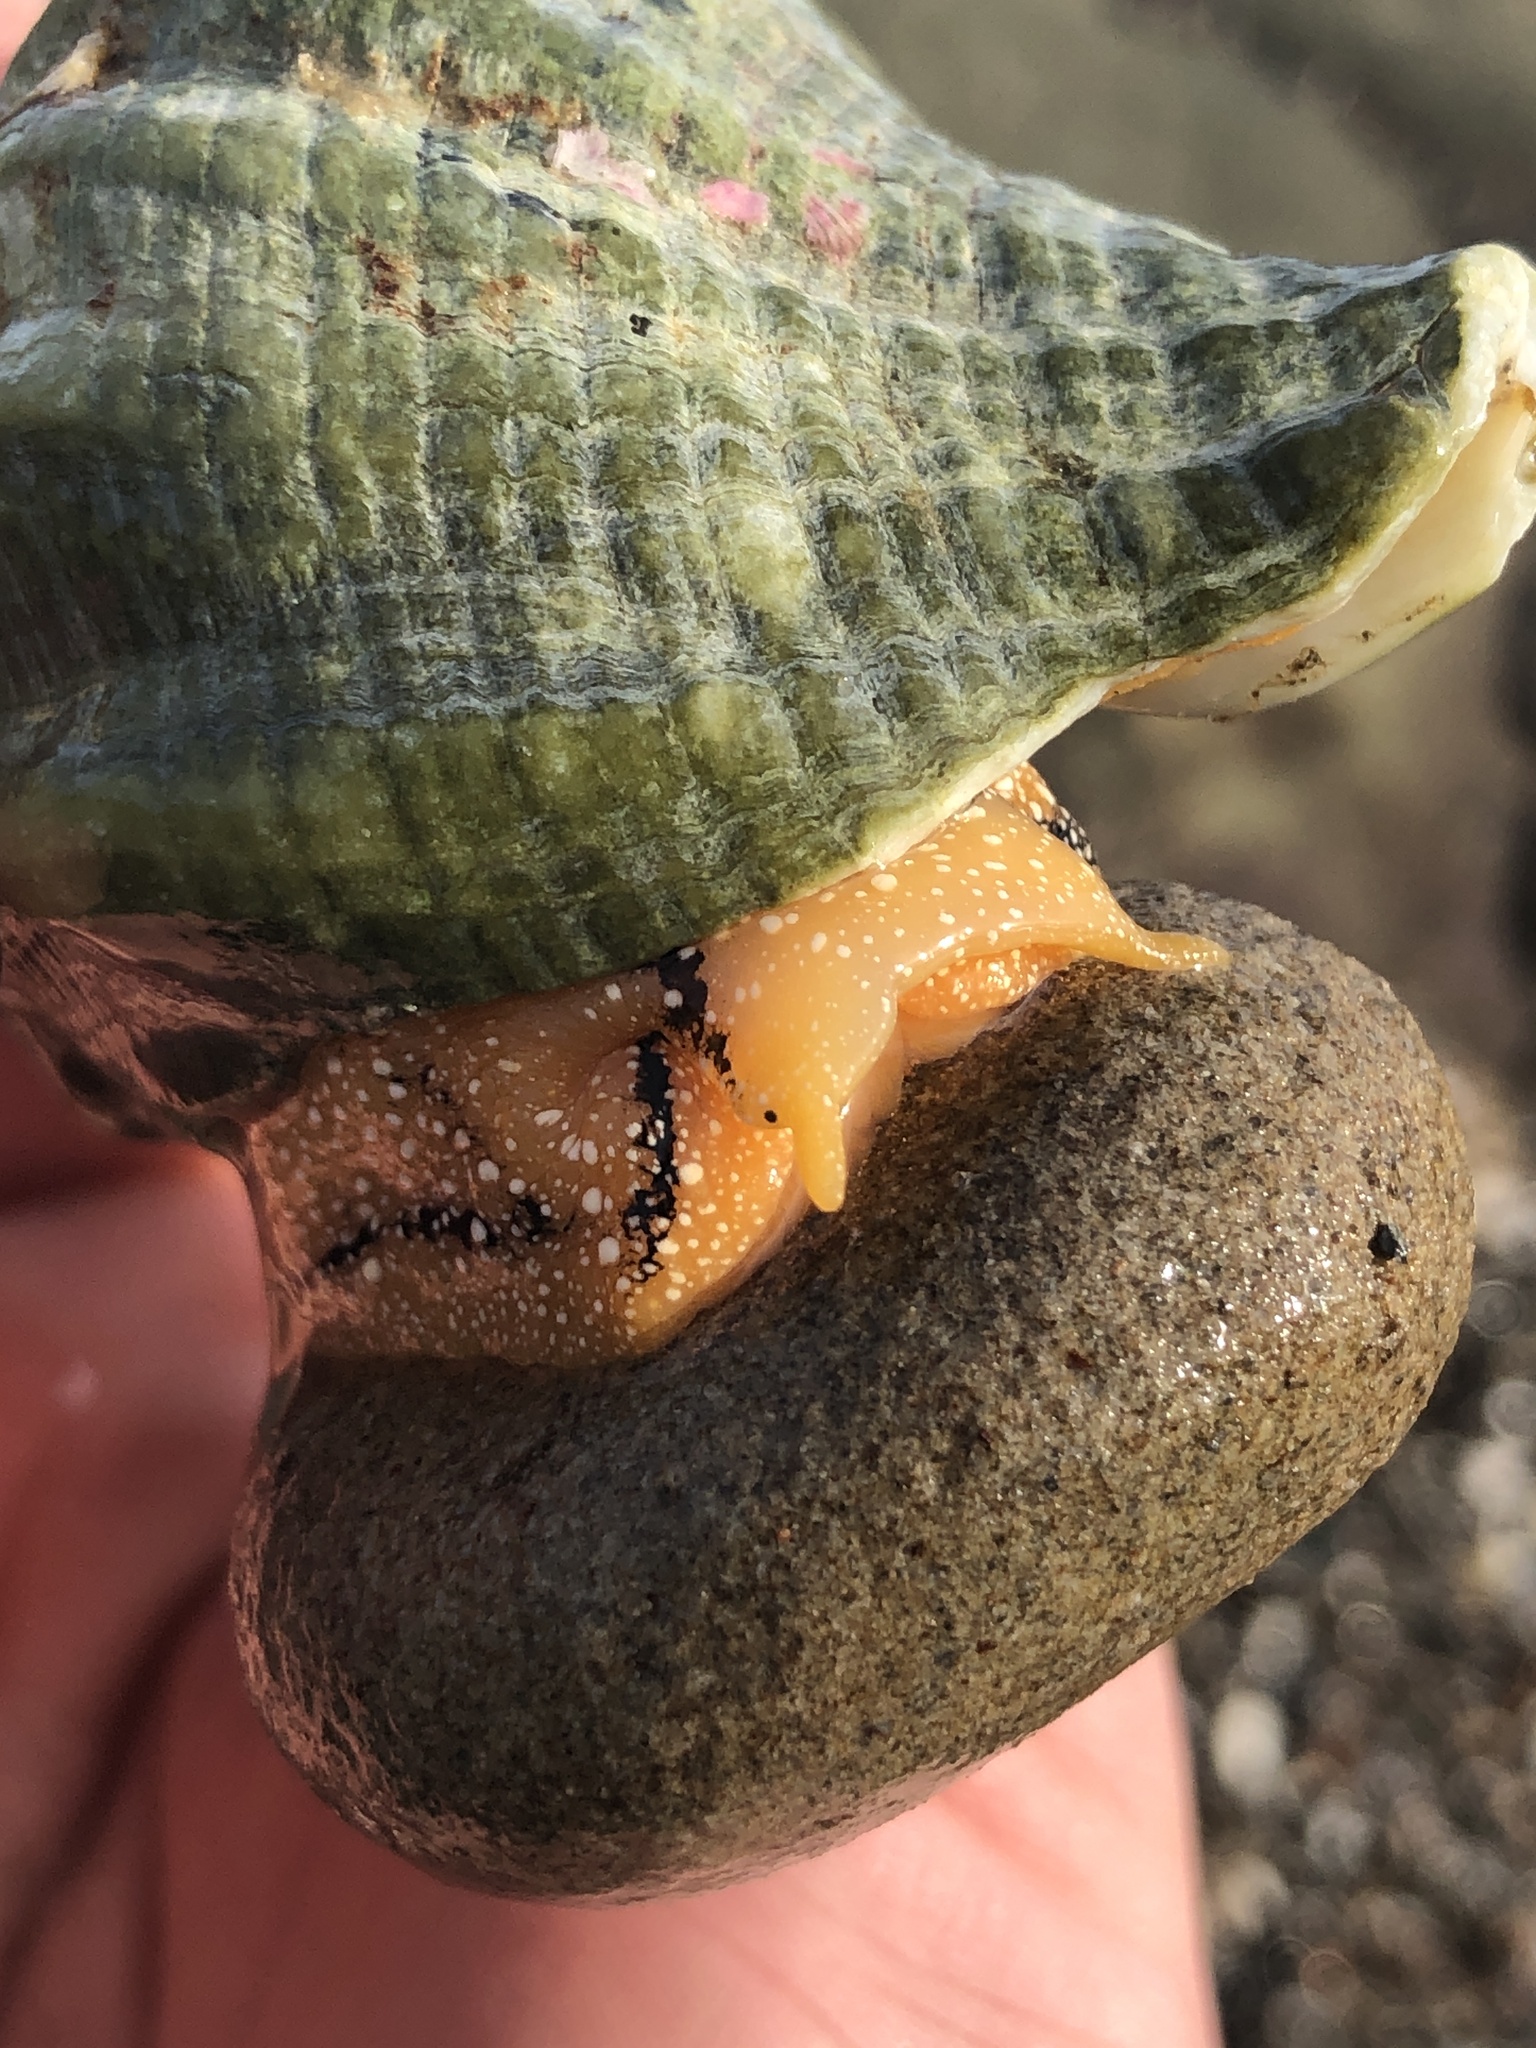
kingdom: Animalia
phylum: Mollusca
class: Gastropoda
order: Neogastropoda
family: Austrosiphonidae
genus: Kelletia
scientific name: Kelletia kelletii
